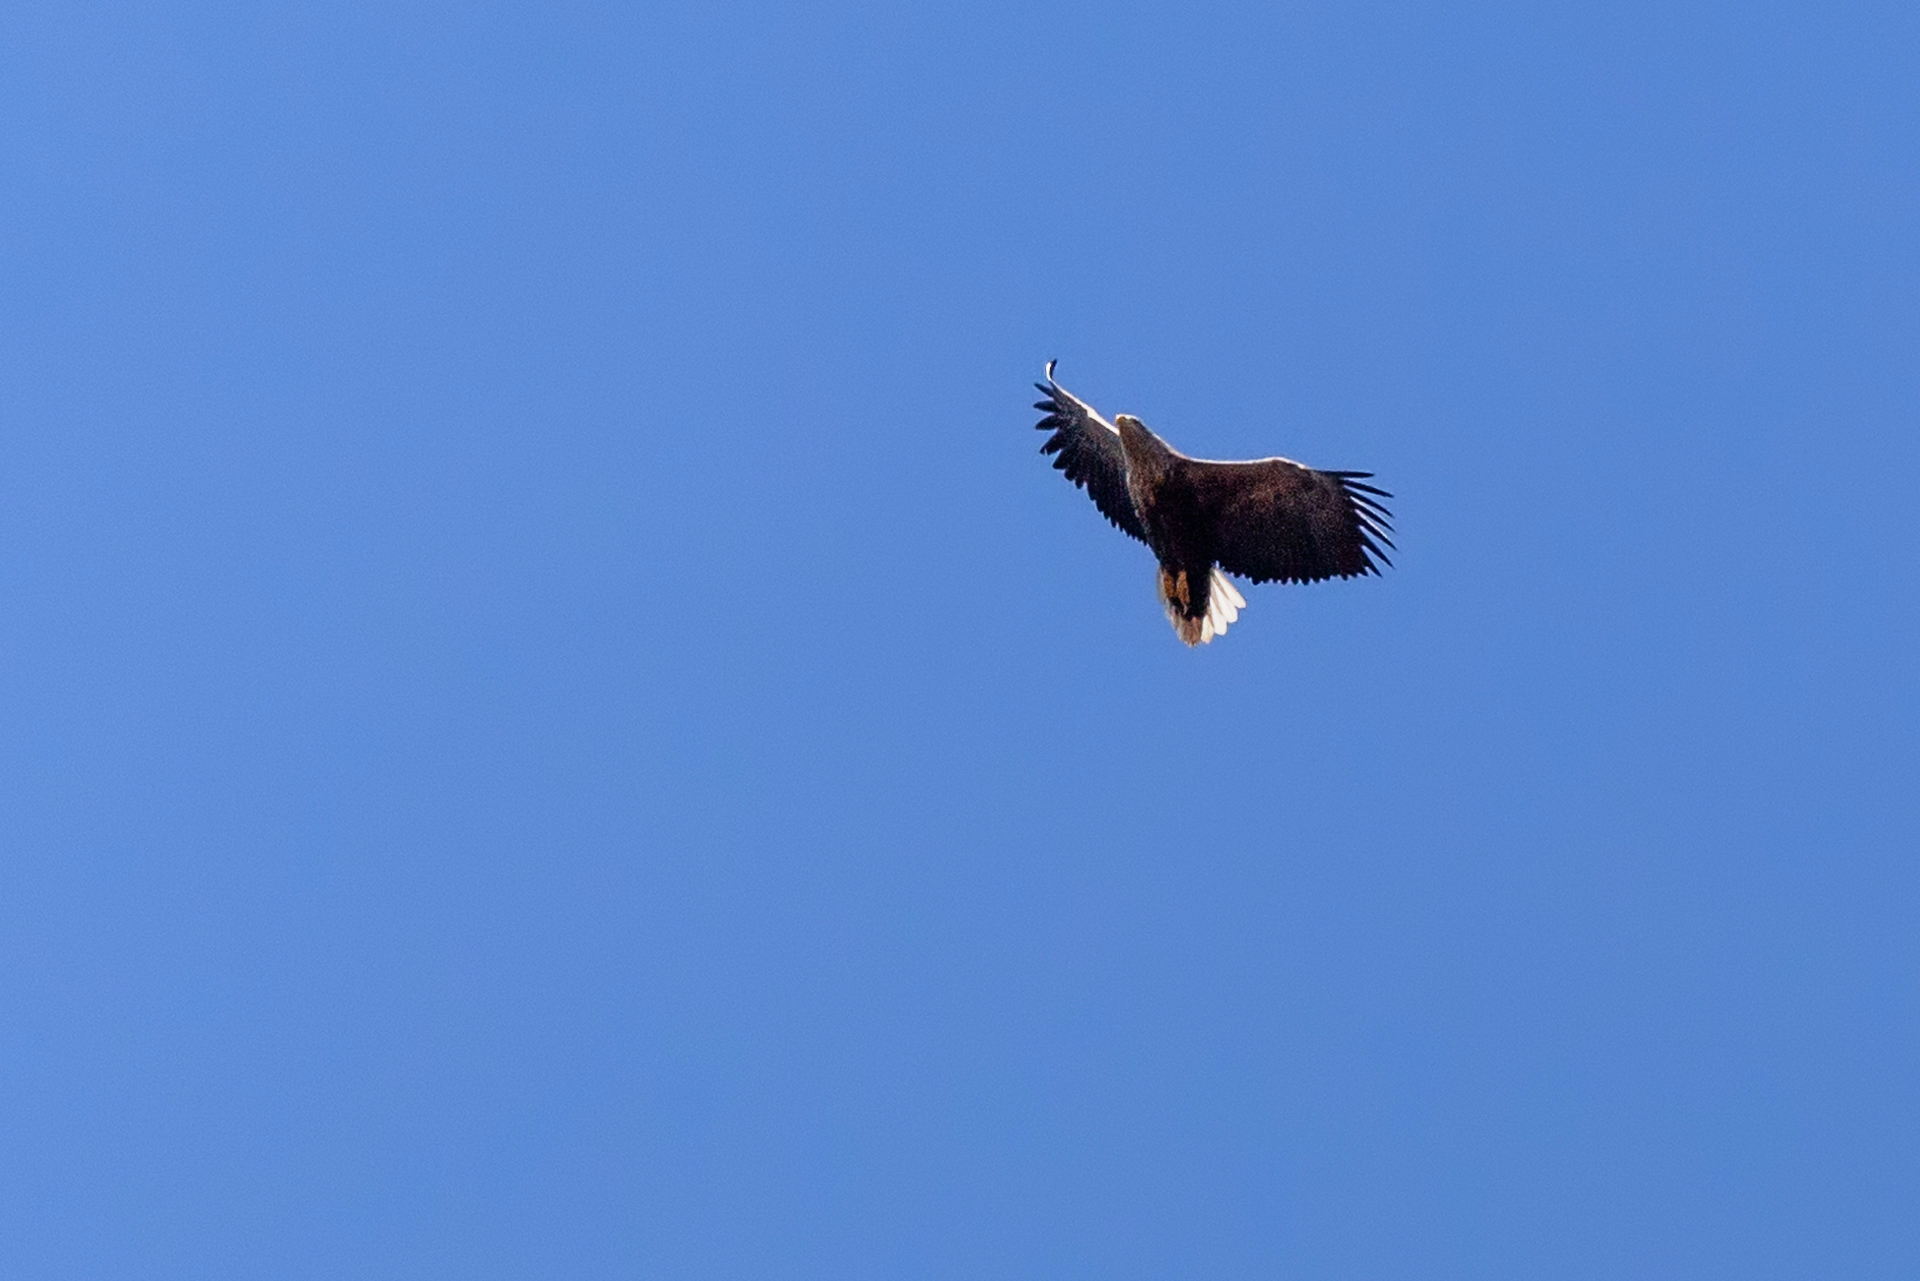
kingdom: Animalia
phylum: Chordata
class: Aves
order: Accipitriformes
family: Accipitridae
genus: Haliaeetus
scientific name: Haliaeetus albicilla
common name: White-tailed eagle
